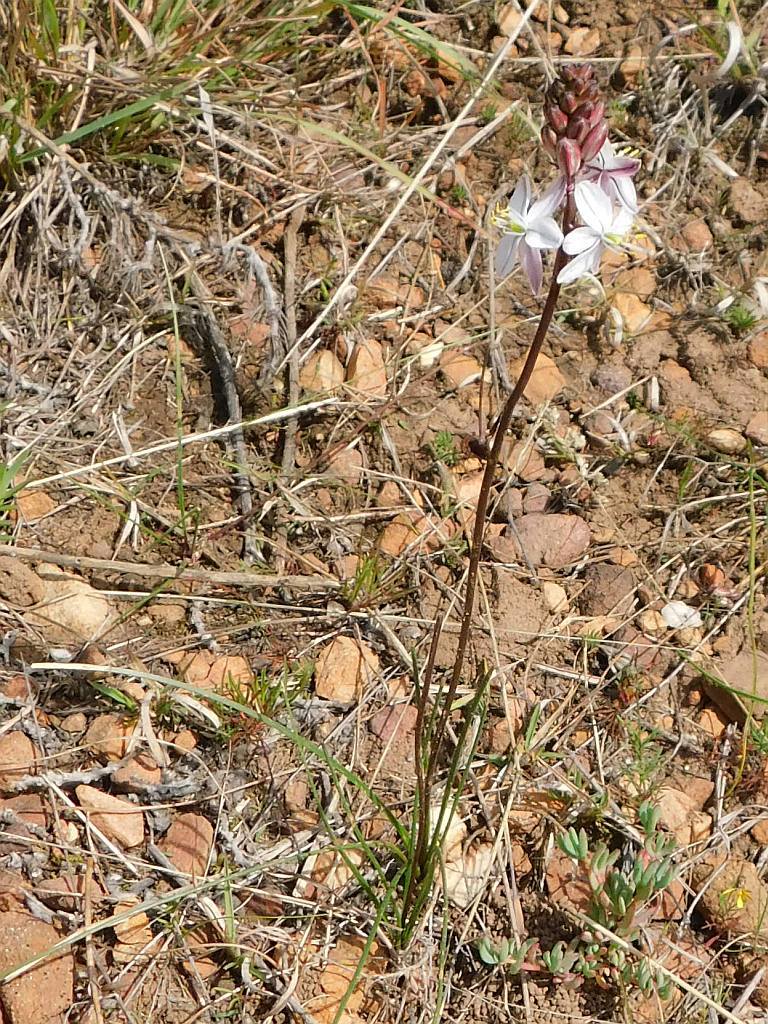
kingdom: Plantae
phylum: Tracheophyta
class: Liliopsida
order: Asparagales
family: Asparagaceae
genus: Drimia
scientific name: Drimia exuviata
